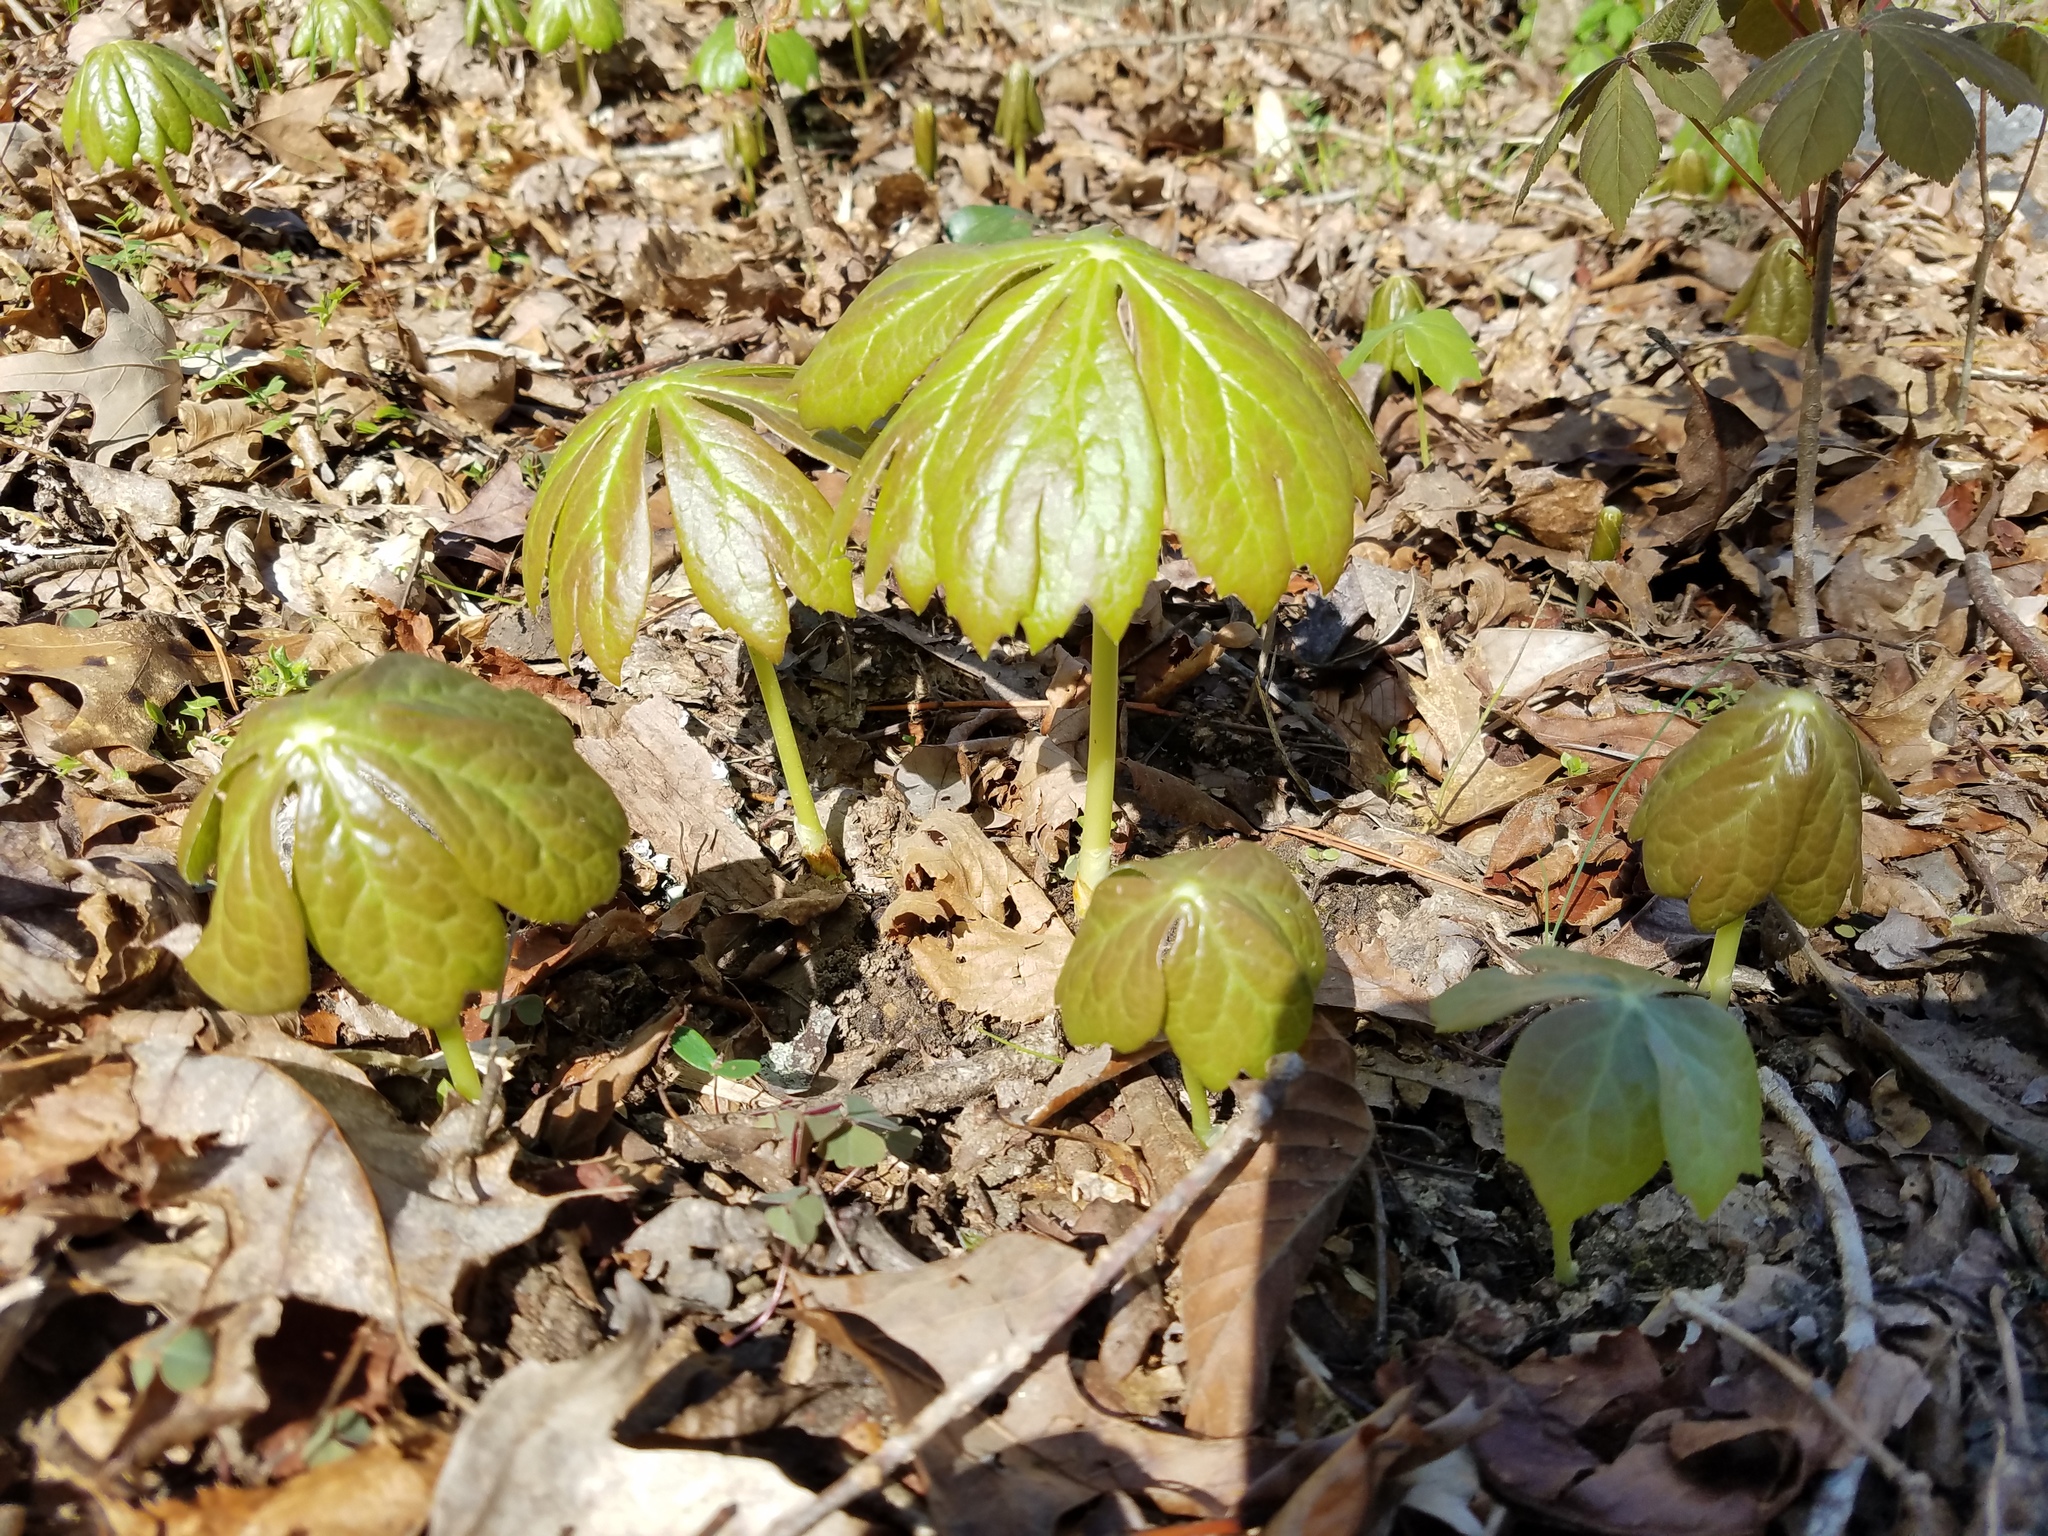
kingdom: Plantae
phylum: Tracheophyta
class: Magnoliopsida
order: Ranunculales
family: Berberidaceae
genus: Podophyllum
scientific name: Podophyllum peltatum
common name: Wild mandrake
